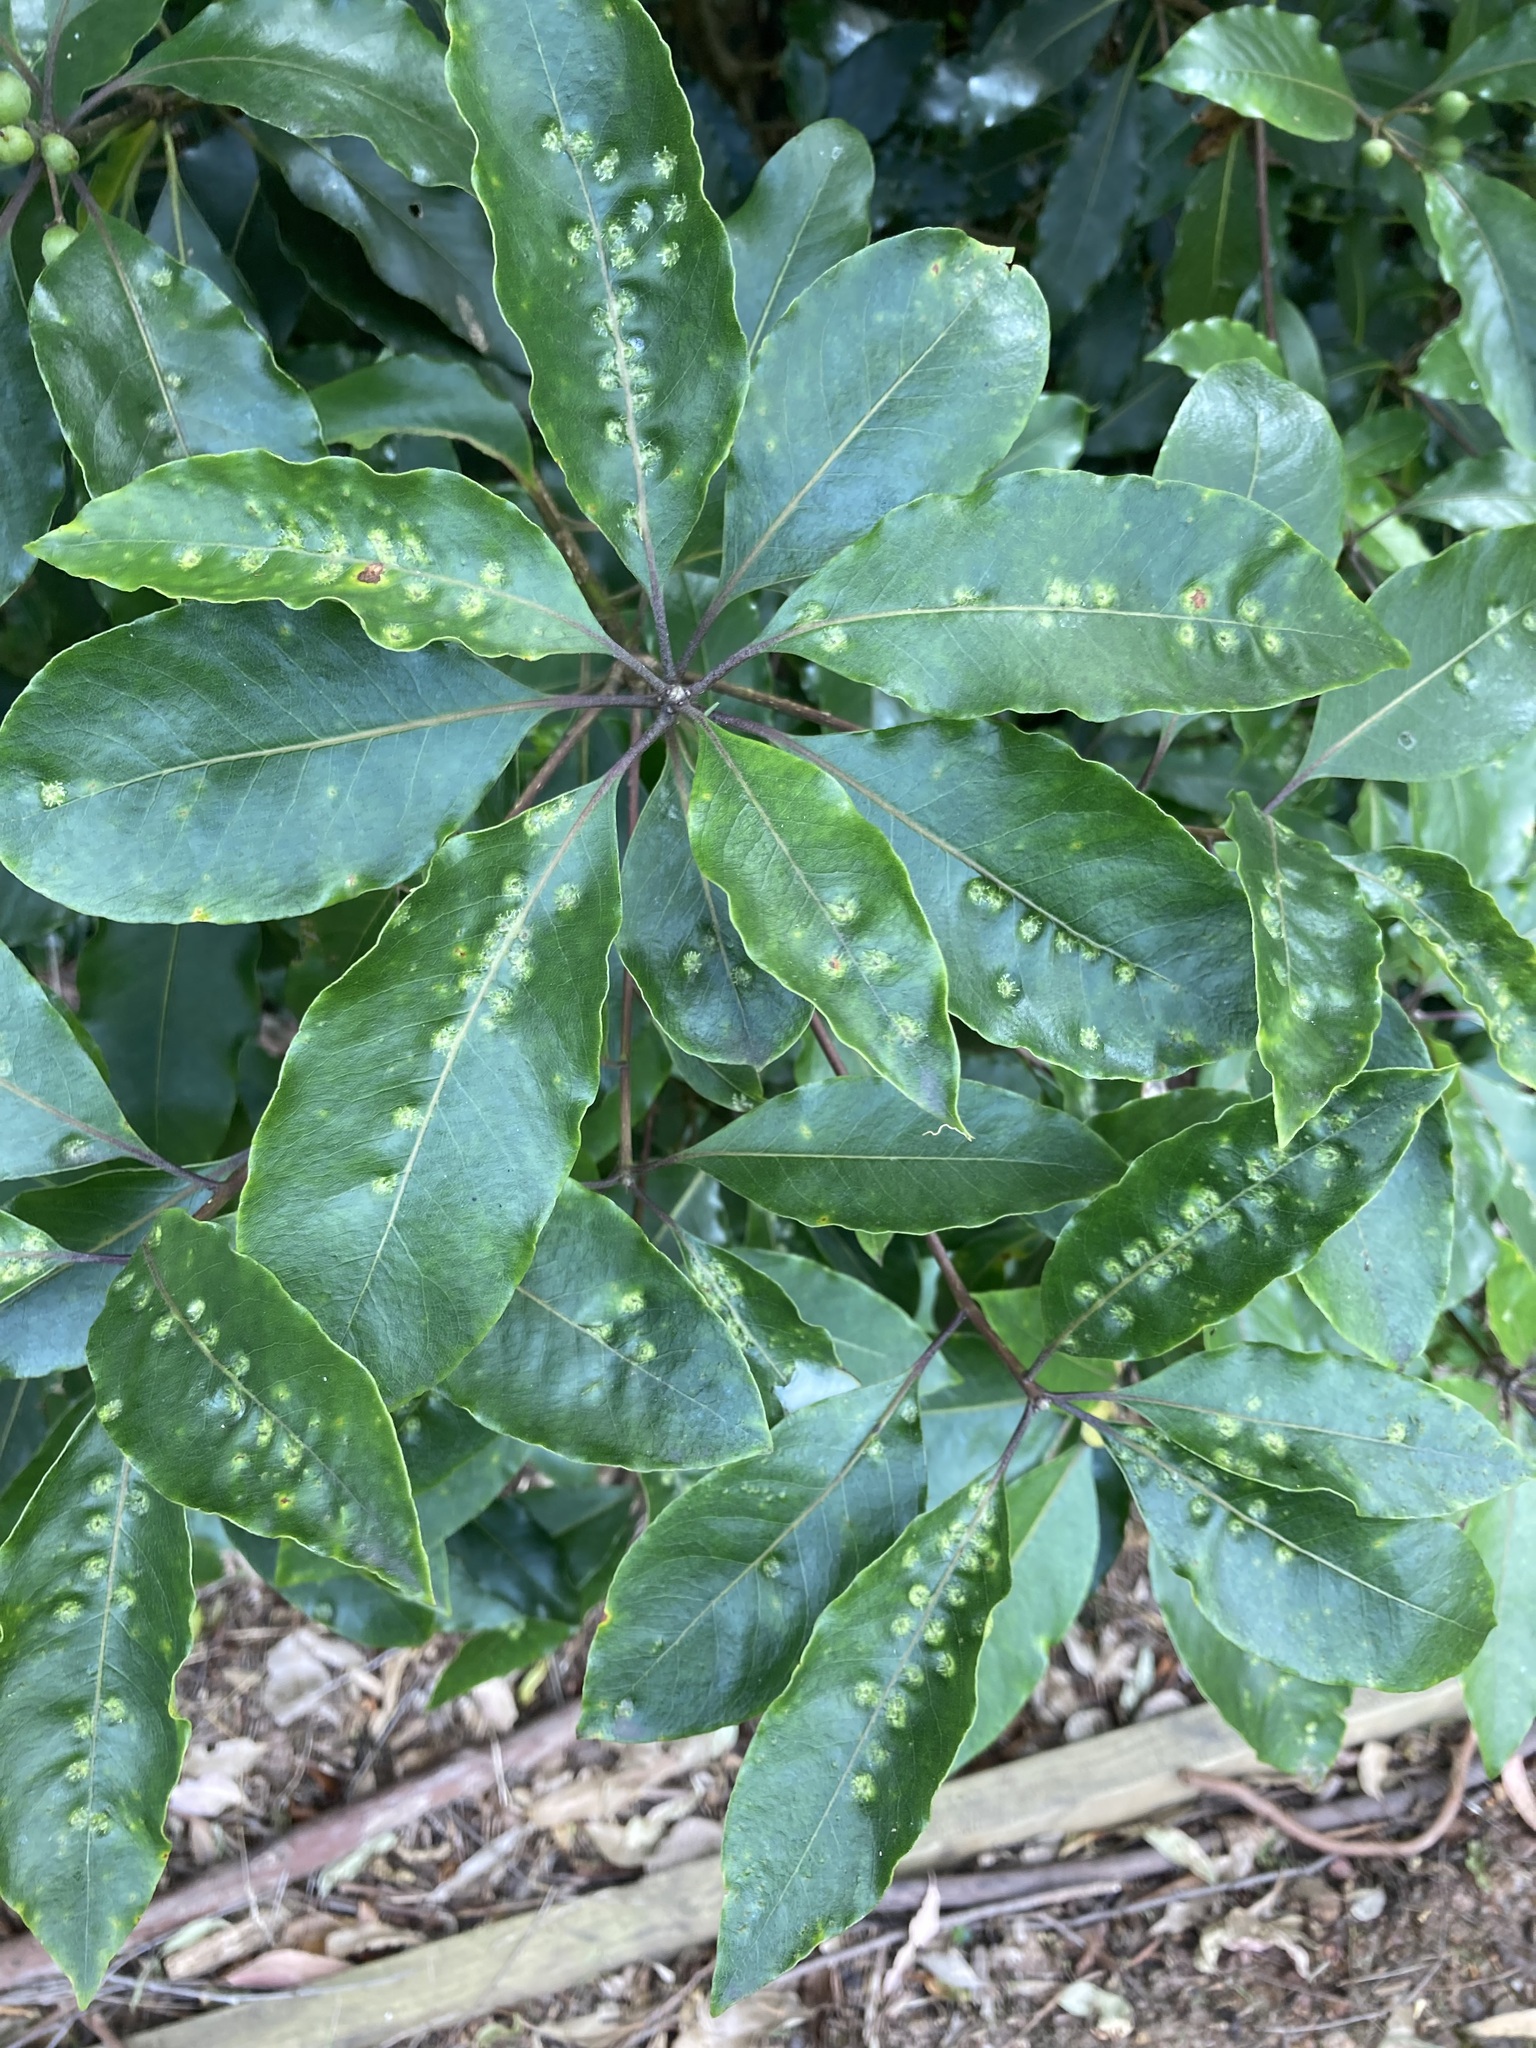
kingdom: Animalia
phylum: Arthropoda
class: Insecta
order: Diptera
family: Agromyzidae
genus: Phytoliriomyza
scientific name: Phytoliriomyza pittosporophylli
